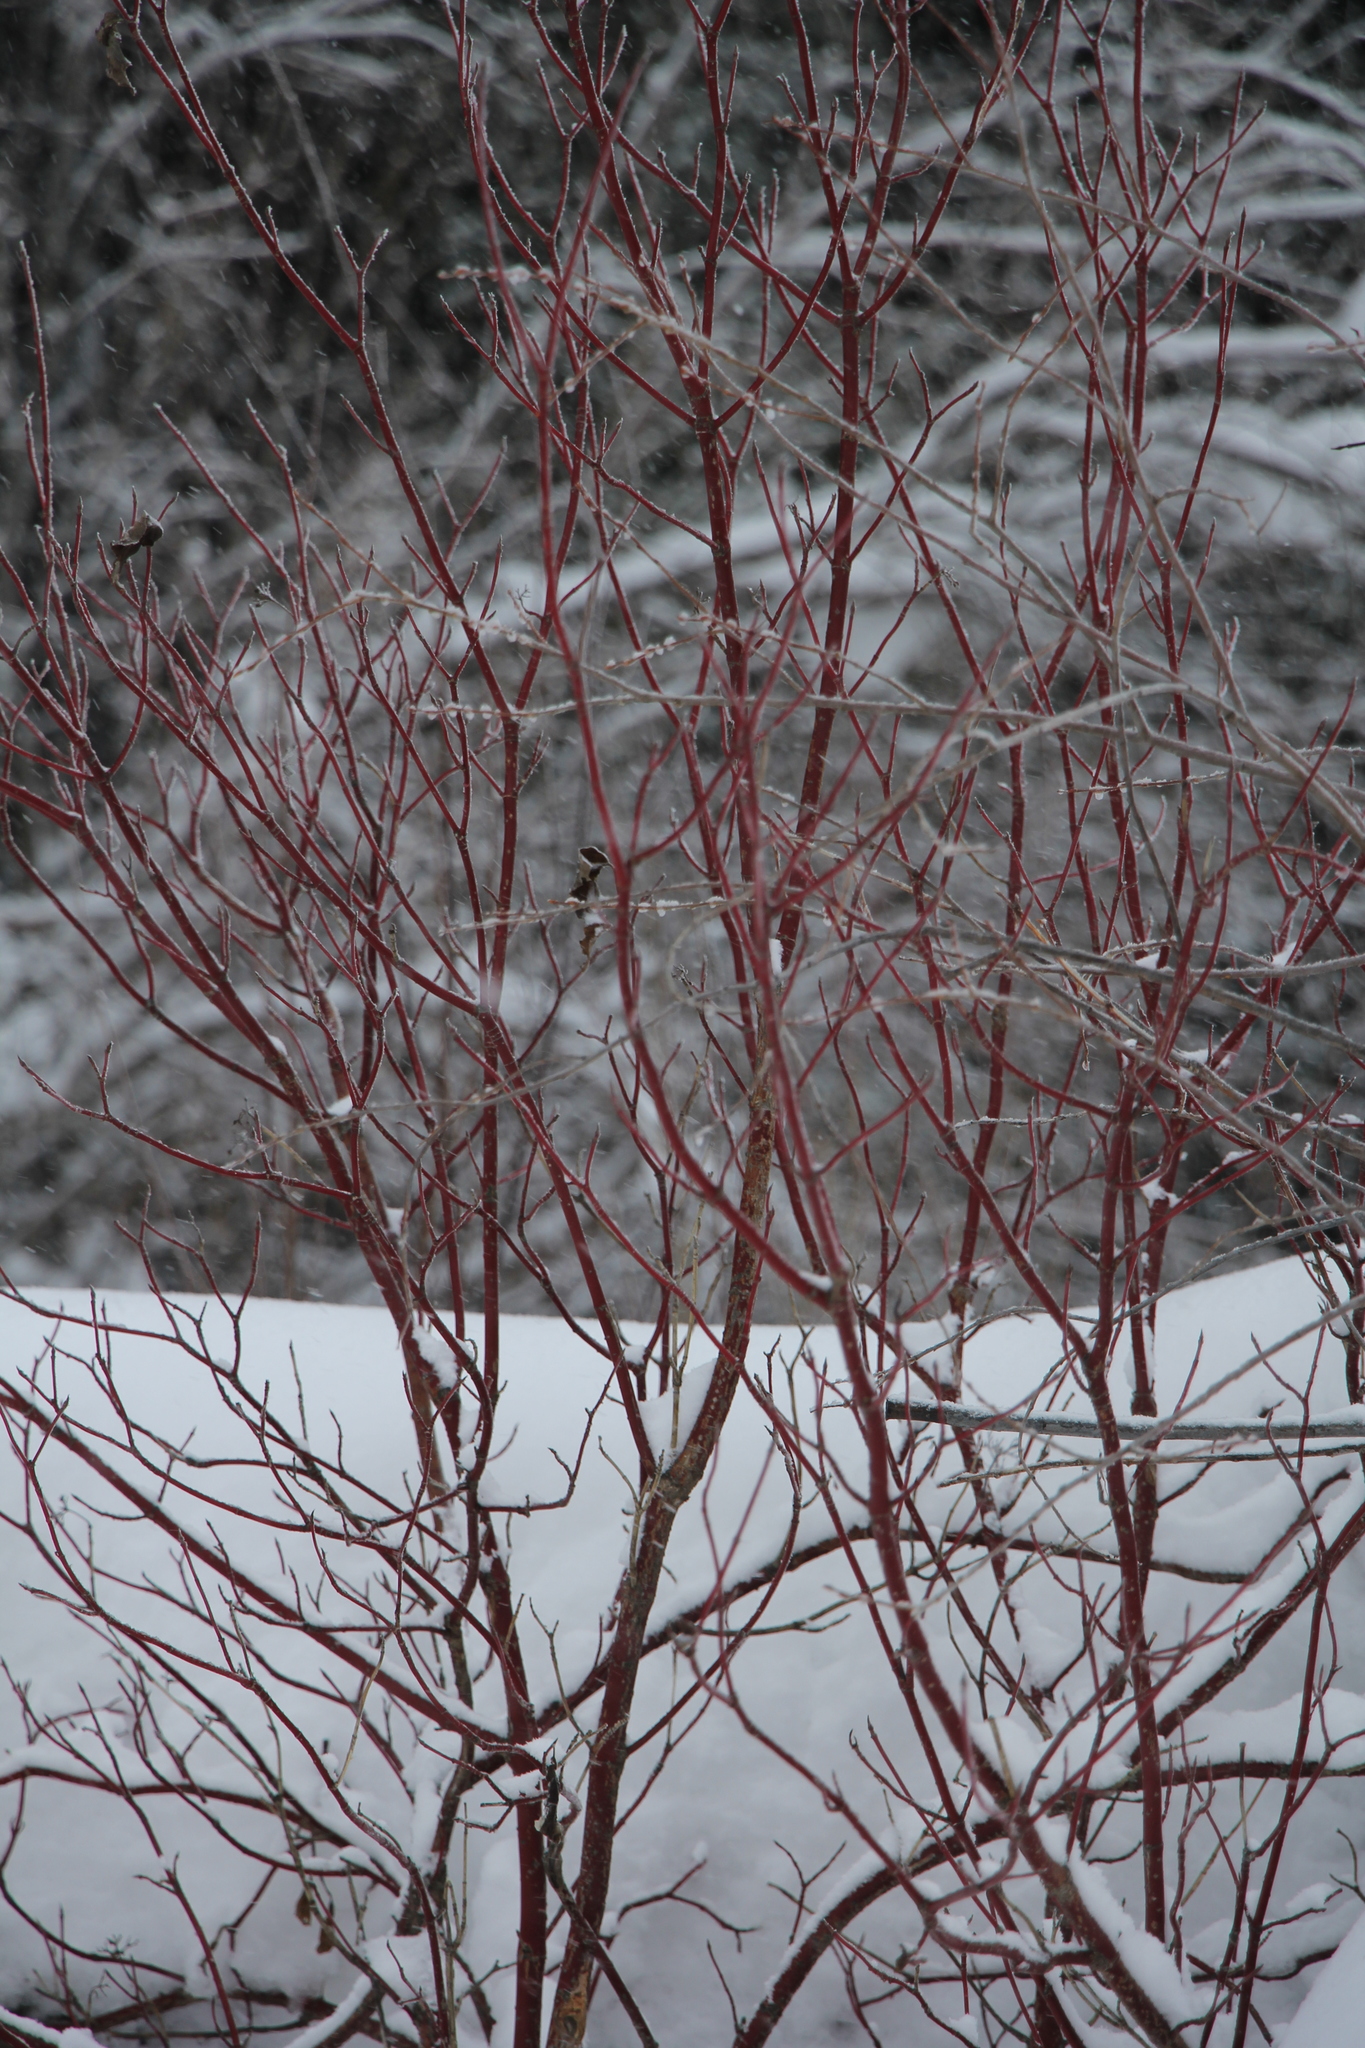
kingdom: Plantae
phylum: Tracheophyta
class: Magnoliopsida
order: Cornales
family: Cornaceae
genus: Cornus
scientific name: Cornus alba
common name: White dogwood
